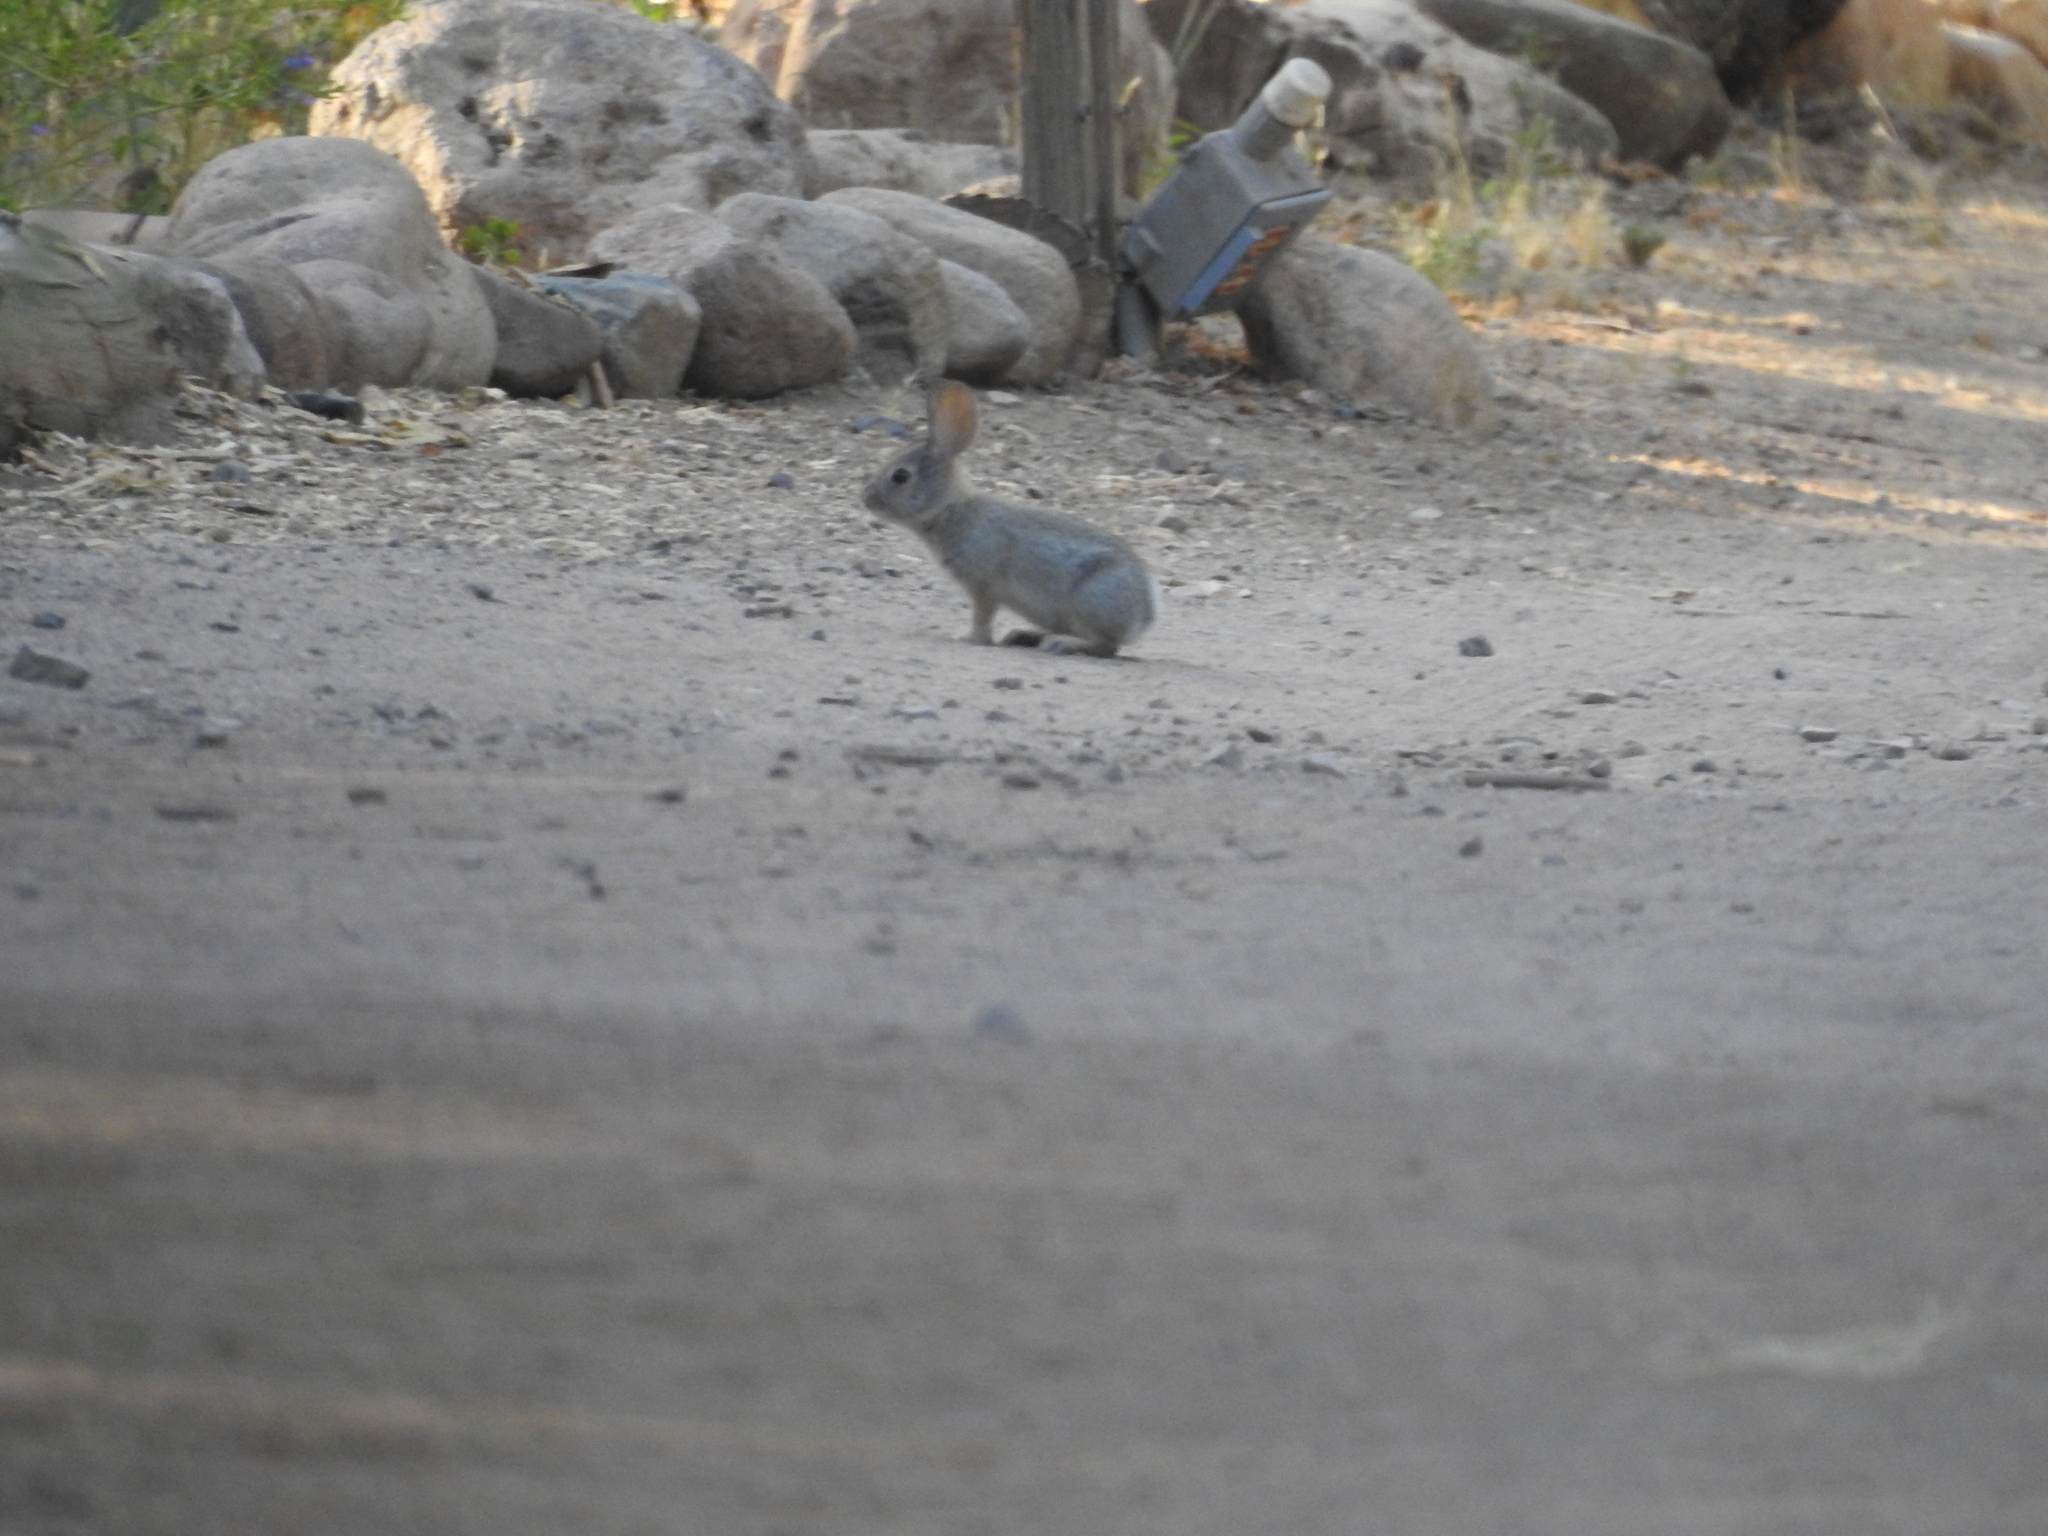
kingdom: Animalia
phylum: Chordata
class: Mammalia
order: Lagomorpha
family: Leporidae
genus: Sylvilagus
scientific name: Sylvilagus audubonii
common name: Desert cottontail
